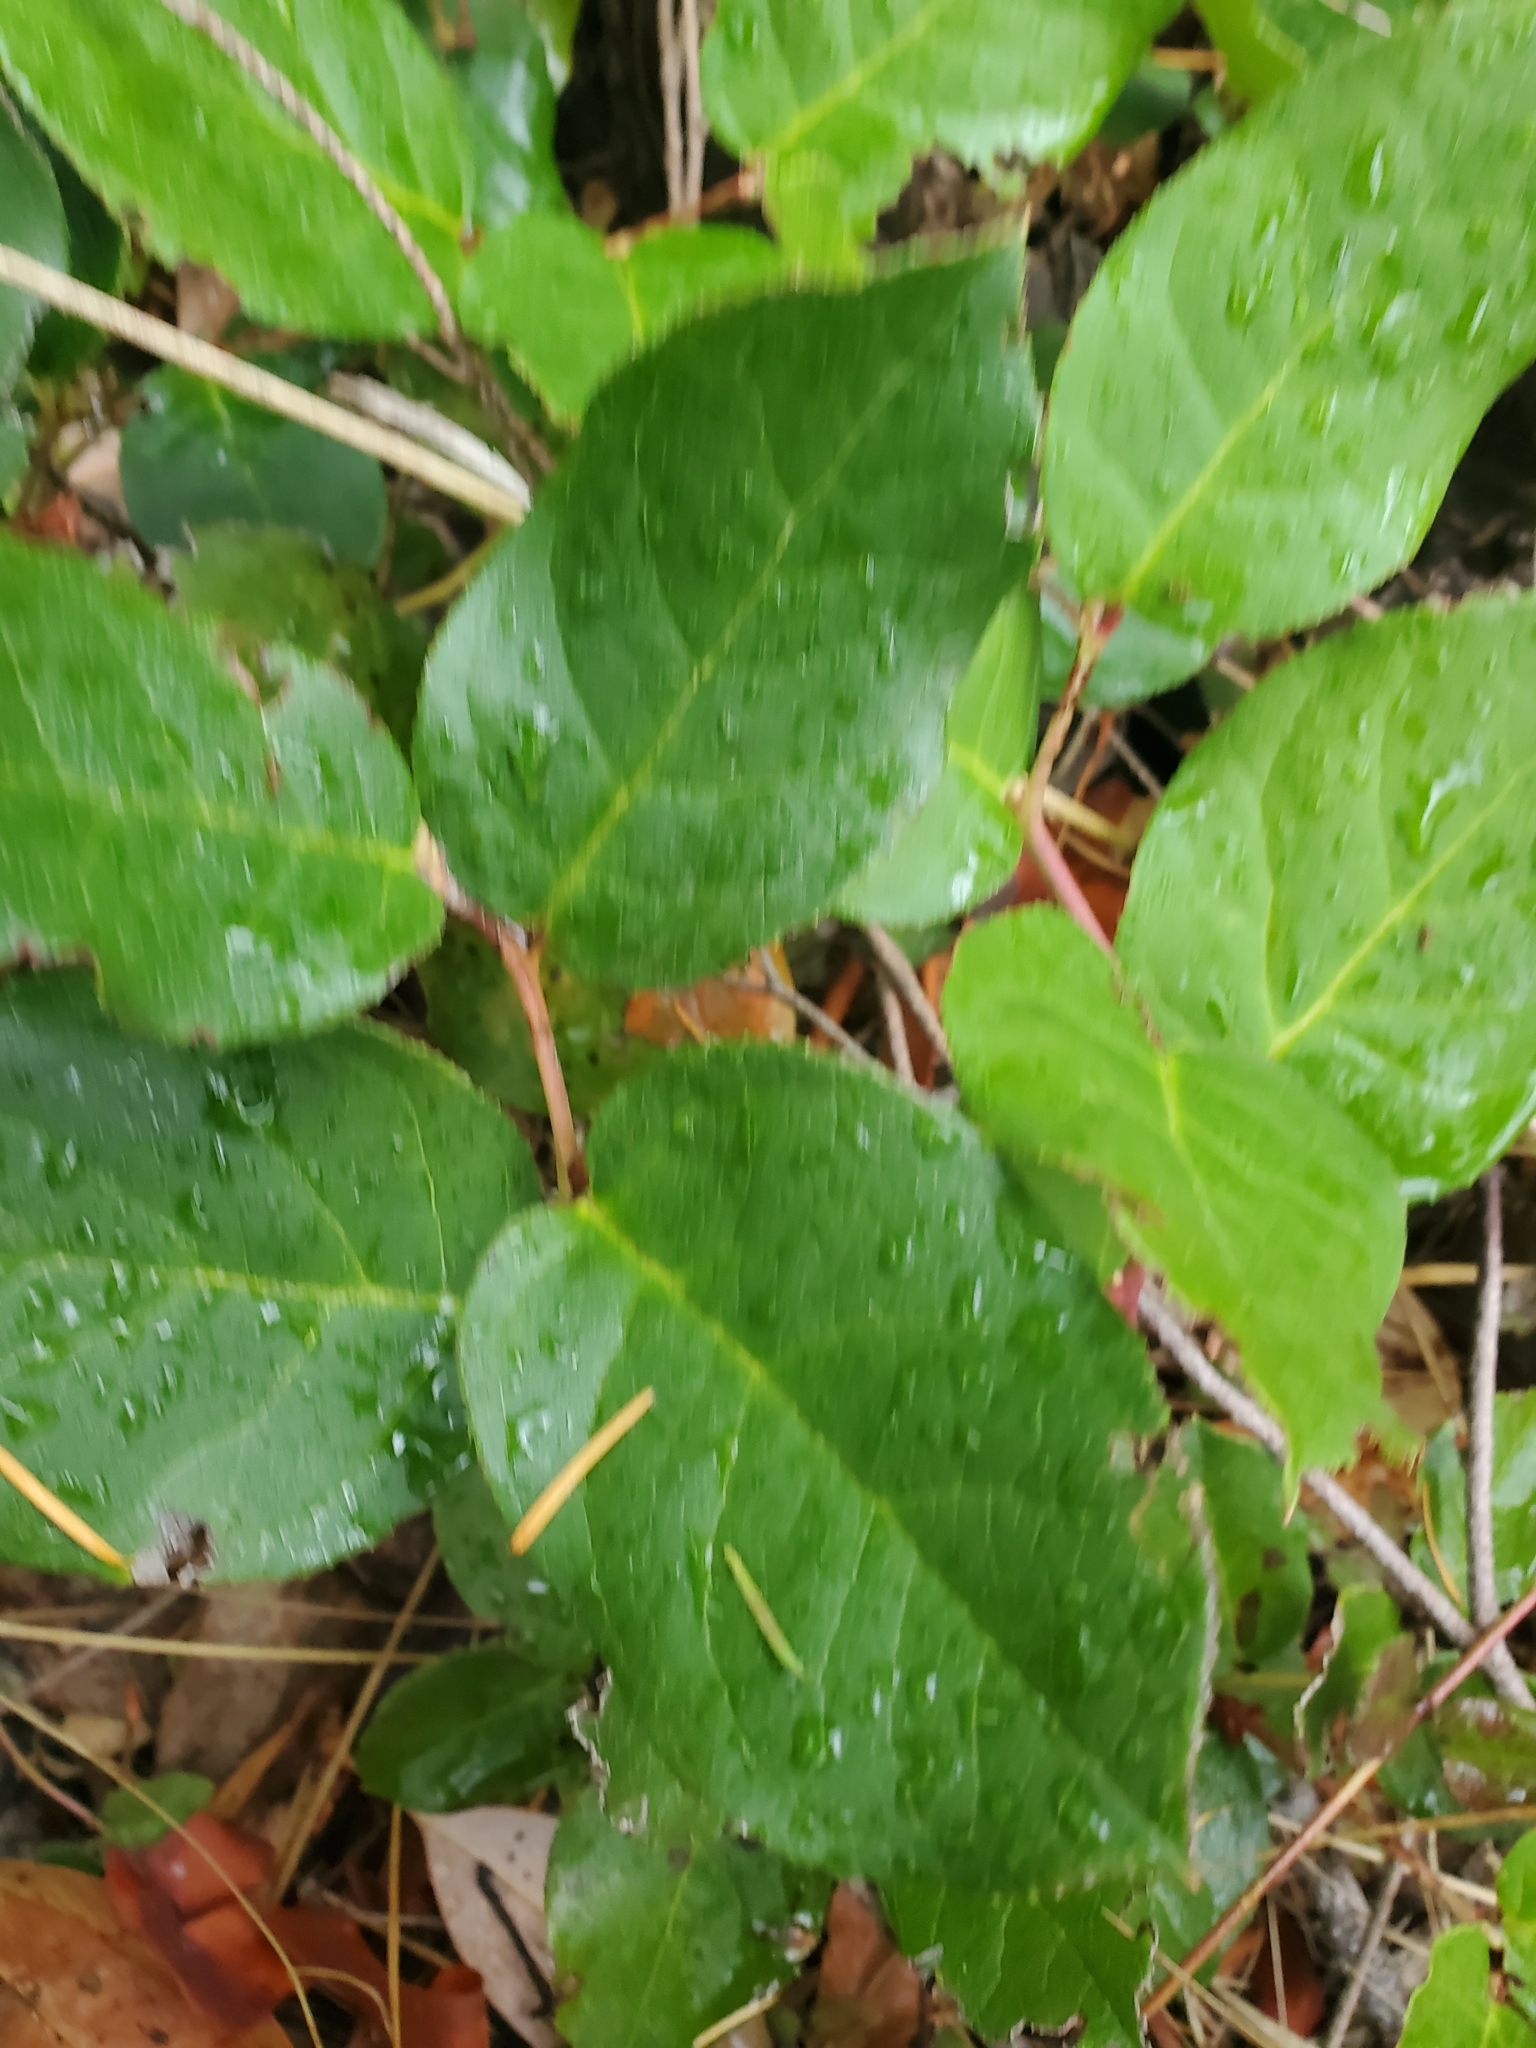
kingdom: Plantae
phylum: Tracheophyta
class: Magnoliopsida
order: Ericales
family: Ericaceae
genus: Gaultheria
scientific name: Gaultheria shallon
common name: Shallon
